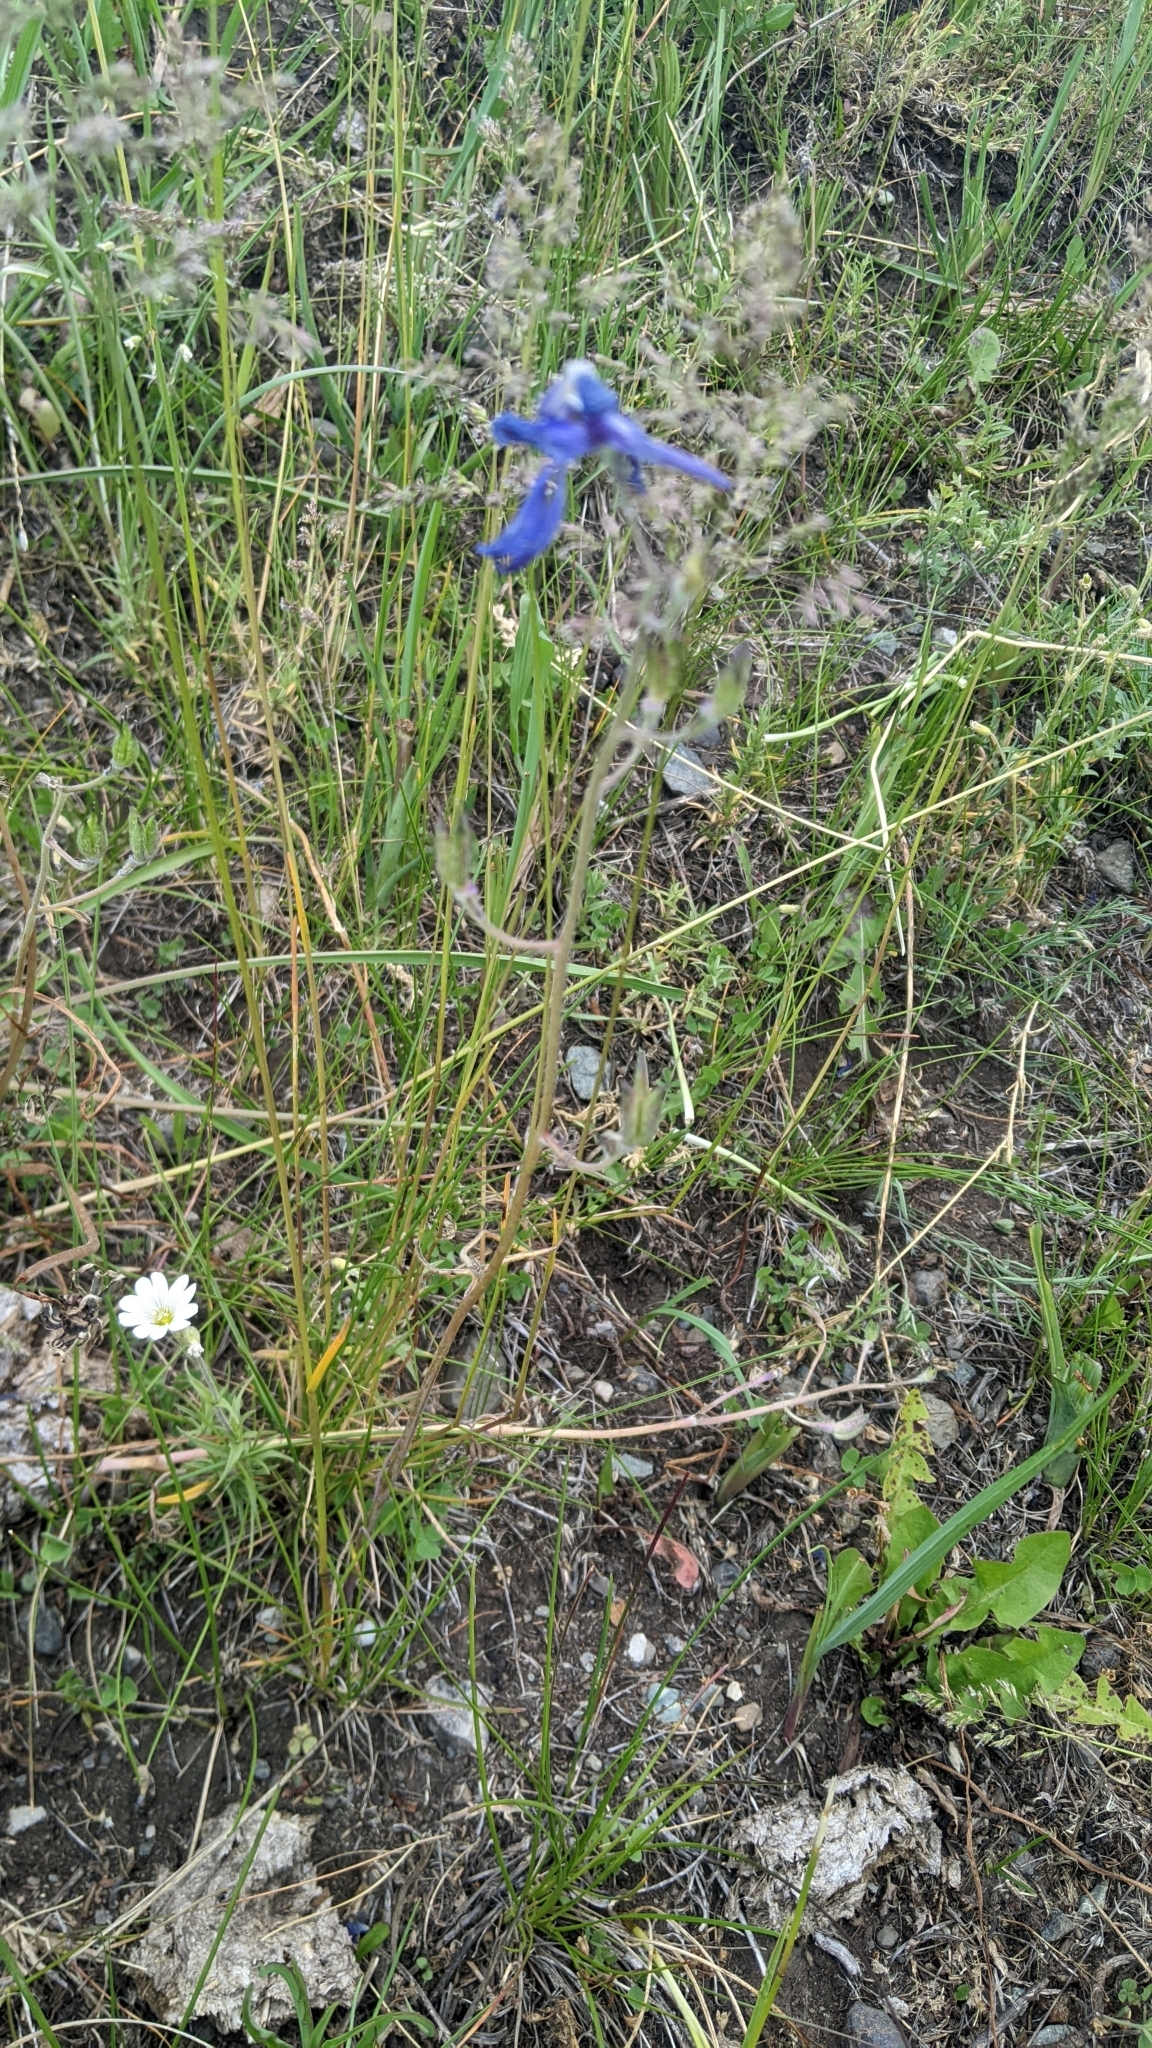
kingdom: Plantae
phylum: Tracheophyta
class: Magnoliopsida
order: Ranunculales
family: Ranunculaceae
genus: Delphinium
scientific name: Delphinium nuttallianum
